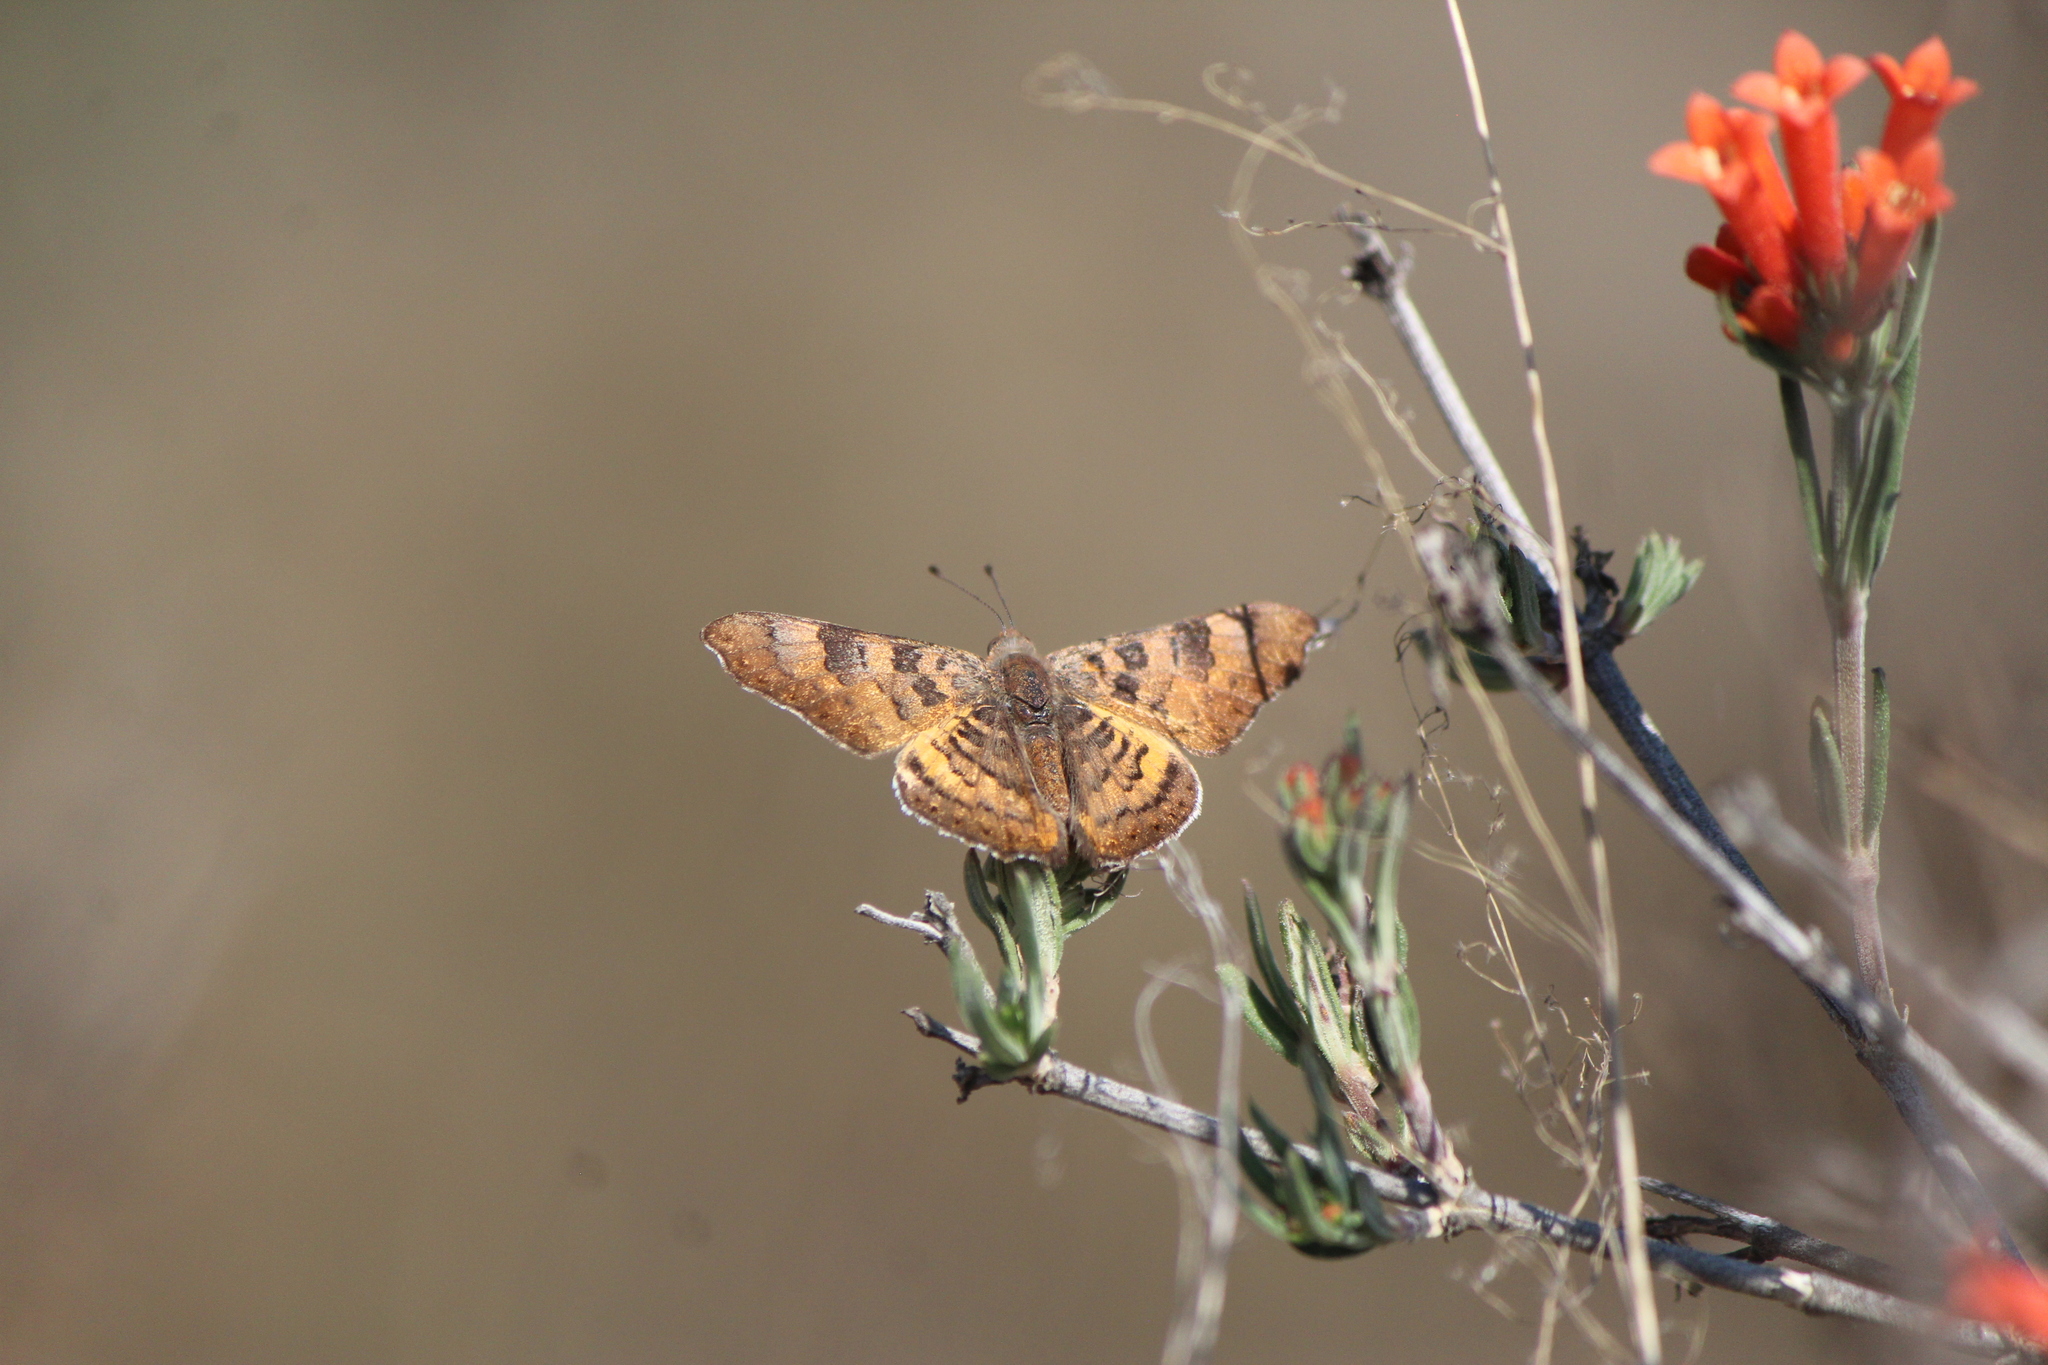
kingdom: Animalia
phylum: Arthropoda
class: Insecta
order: Lepidoptera
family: Riodinidae
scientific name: Riodinidae
